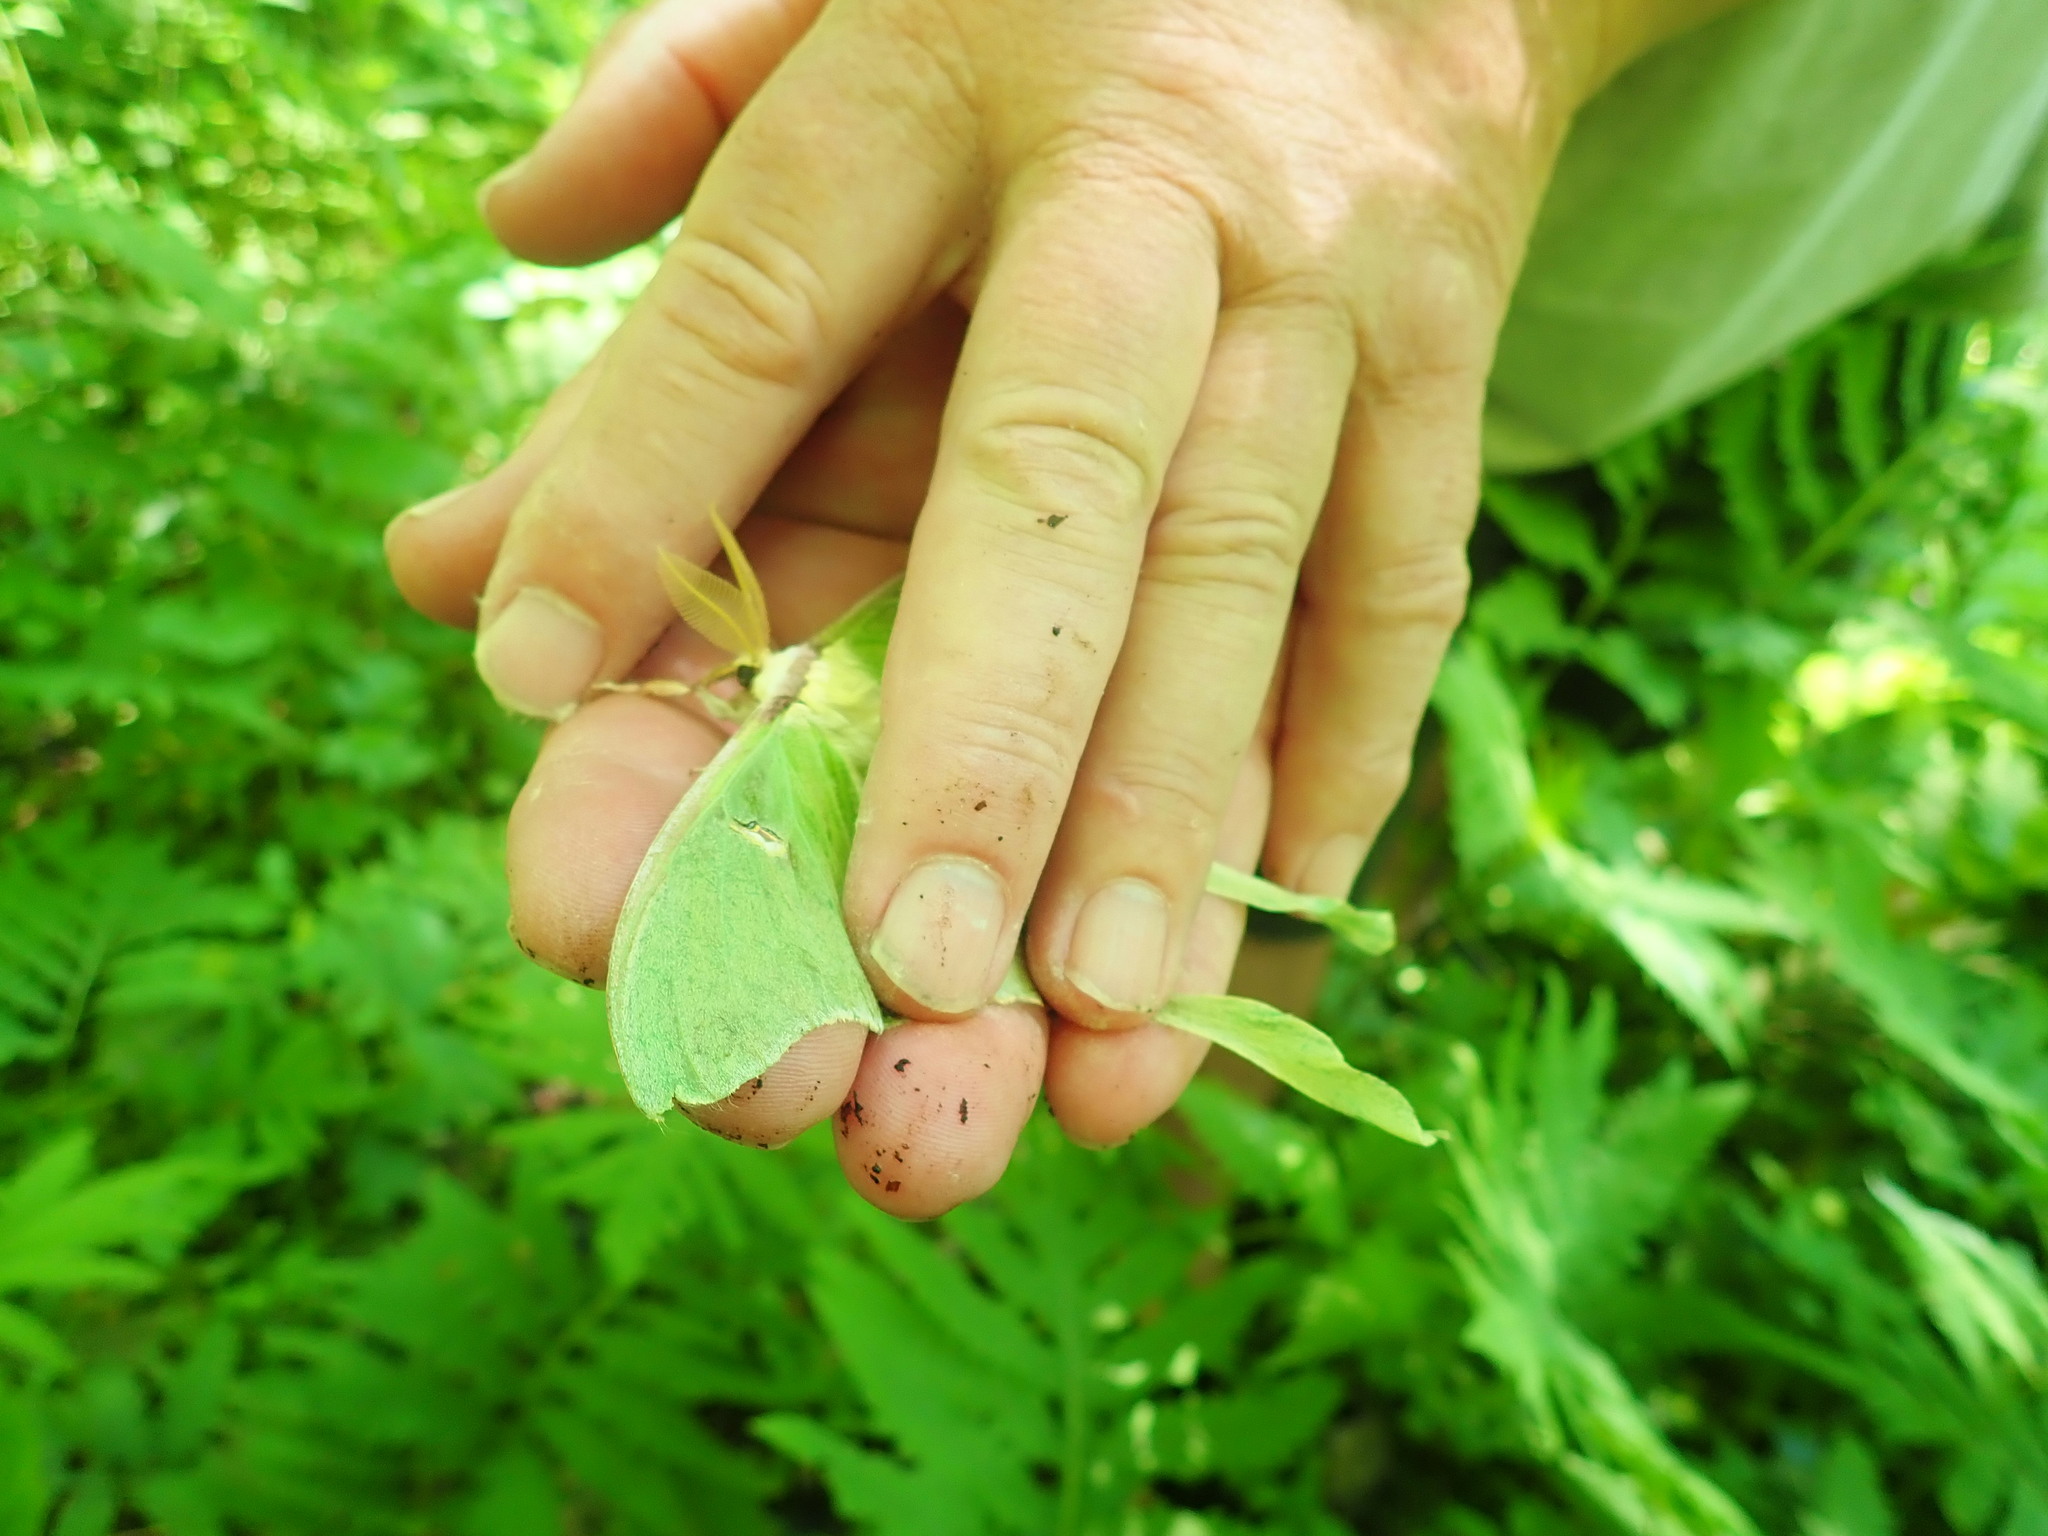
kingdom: Animalia
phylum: Arthropoda
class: Insecta
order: Lepidoptera
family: Saturniidae
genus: Actias
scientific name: Actias luna
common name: Luna moth
